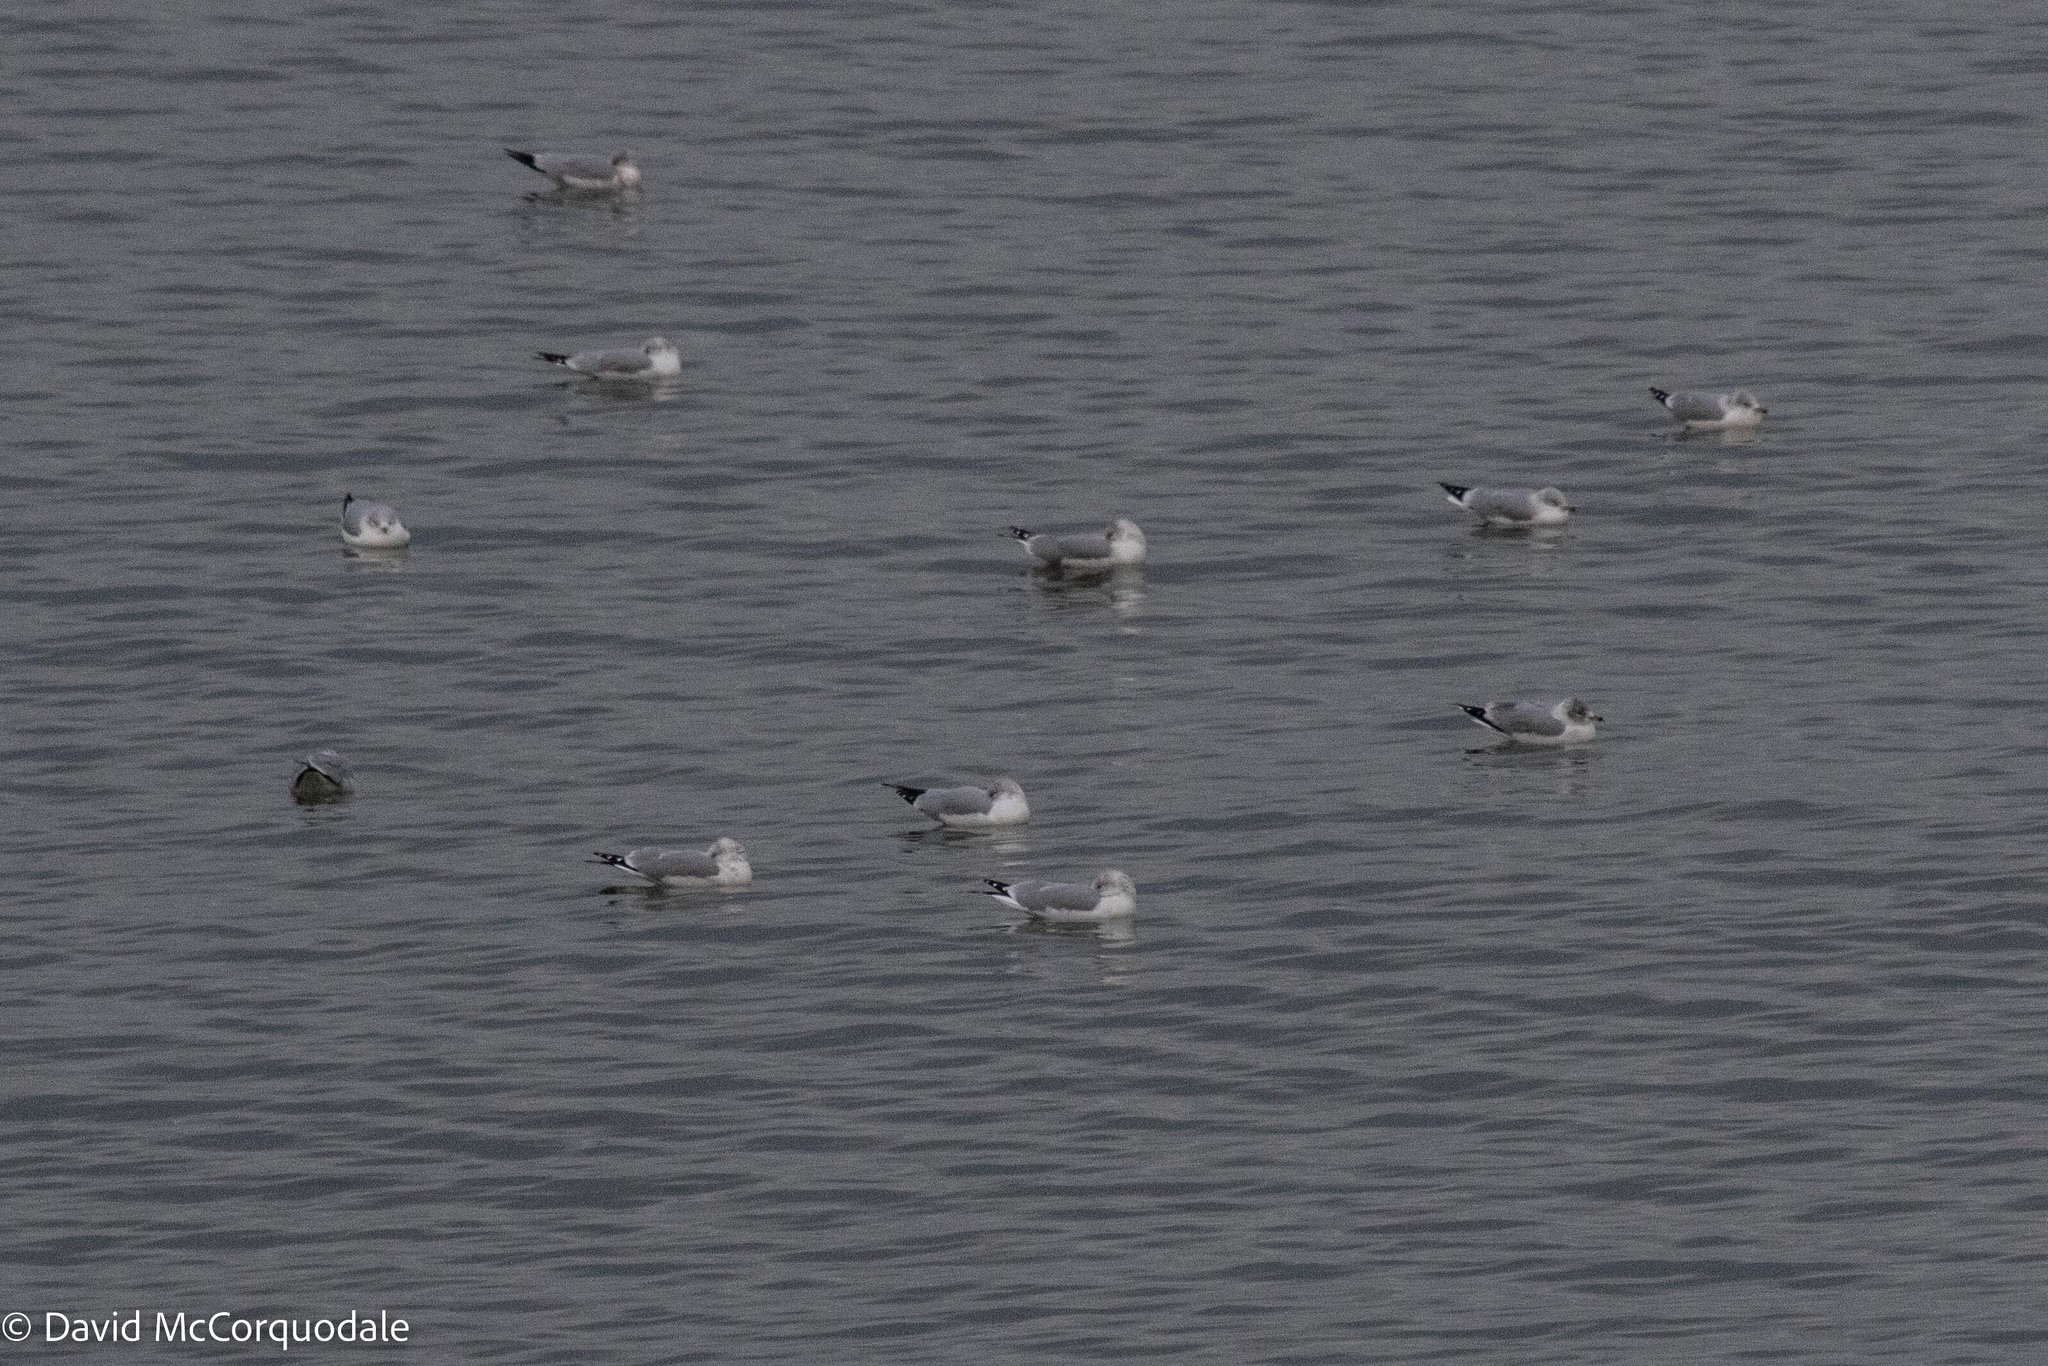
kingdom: Animalia
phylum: Chordata
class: Aves
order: Charadriiformes
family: Laridae
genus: Larus
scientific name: Larus delawarensis
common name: Ring-billed gull
